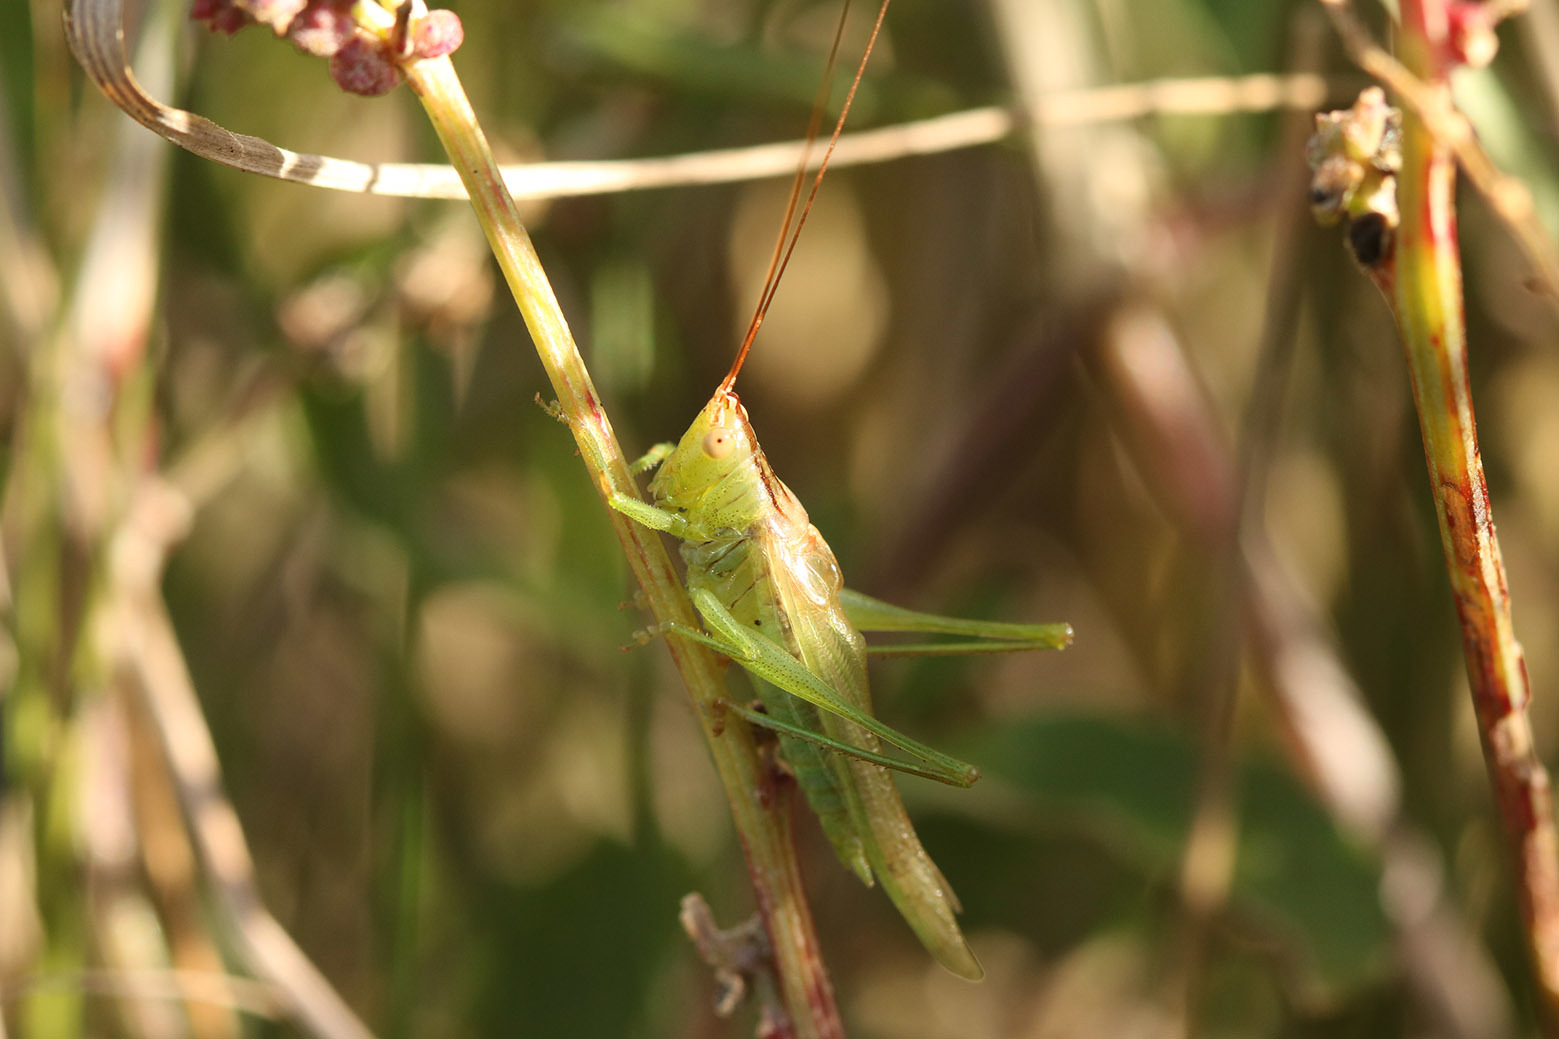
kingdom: Animalia
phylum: Arthropoda
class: Insecta
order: Orthoptera
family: Tettigoniidae
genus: Conocephalus
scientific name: Conocephalus longipes
